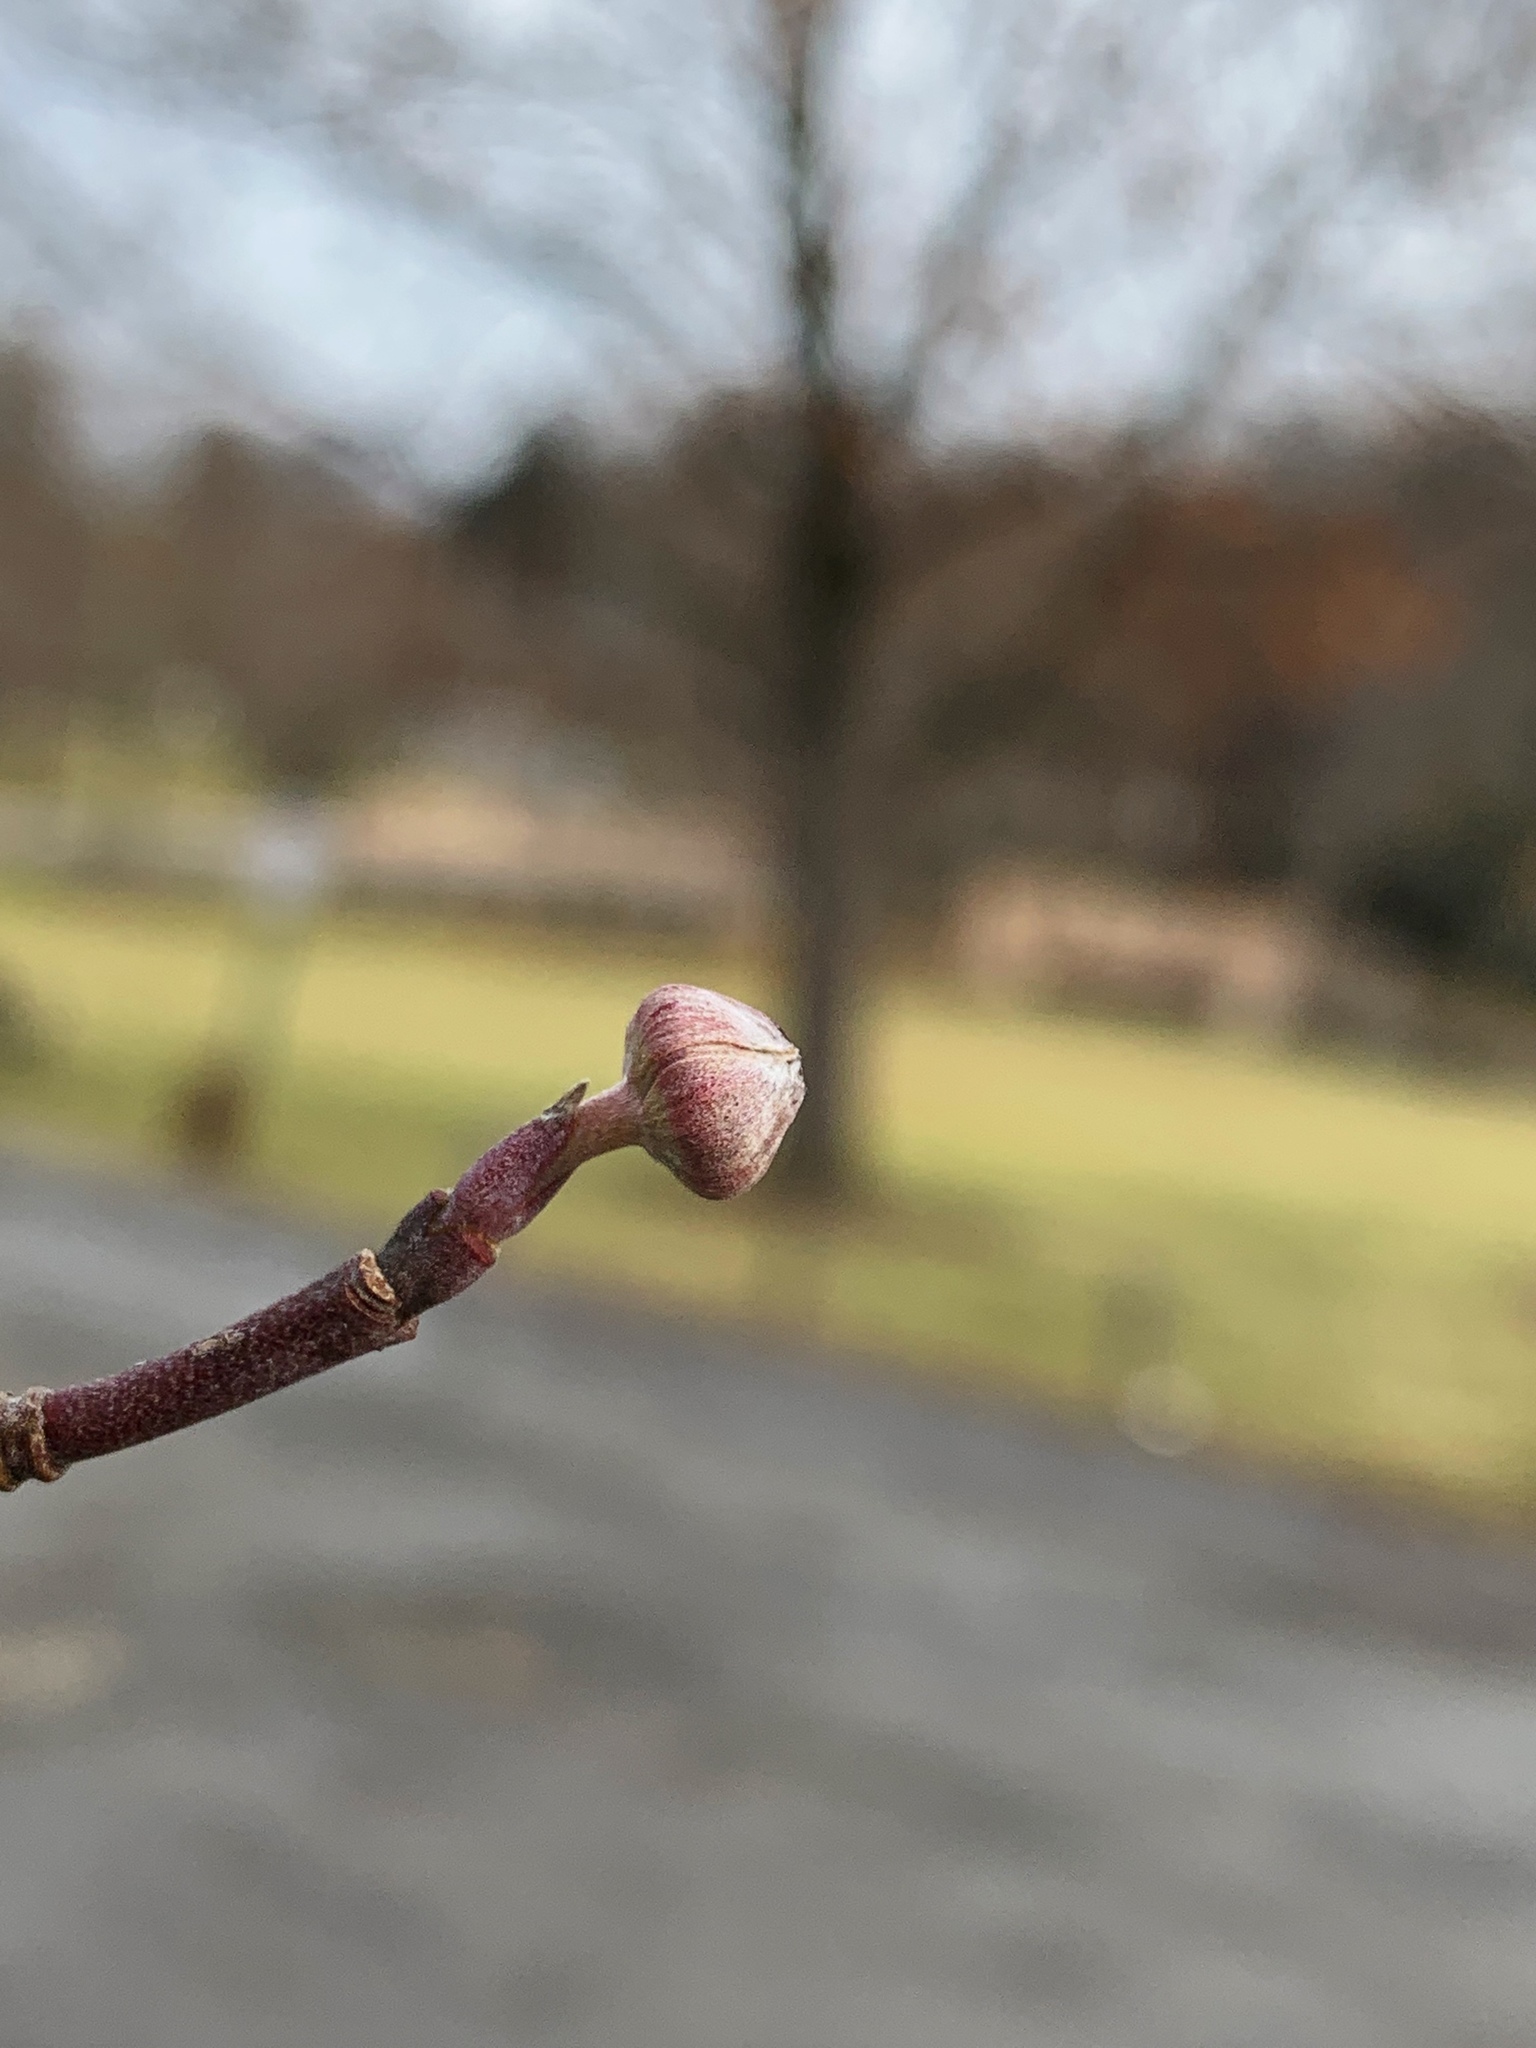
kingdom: Plantae
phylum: Tracheophyta
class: Magnoliopsida
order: Cornales
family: Cornaceae
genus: Cornus
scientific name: Cornus florida
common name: Flowering dogwood
